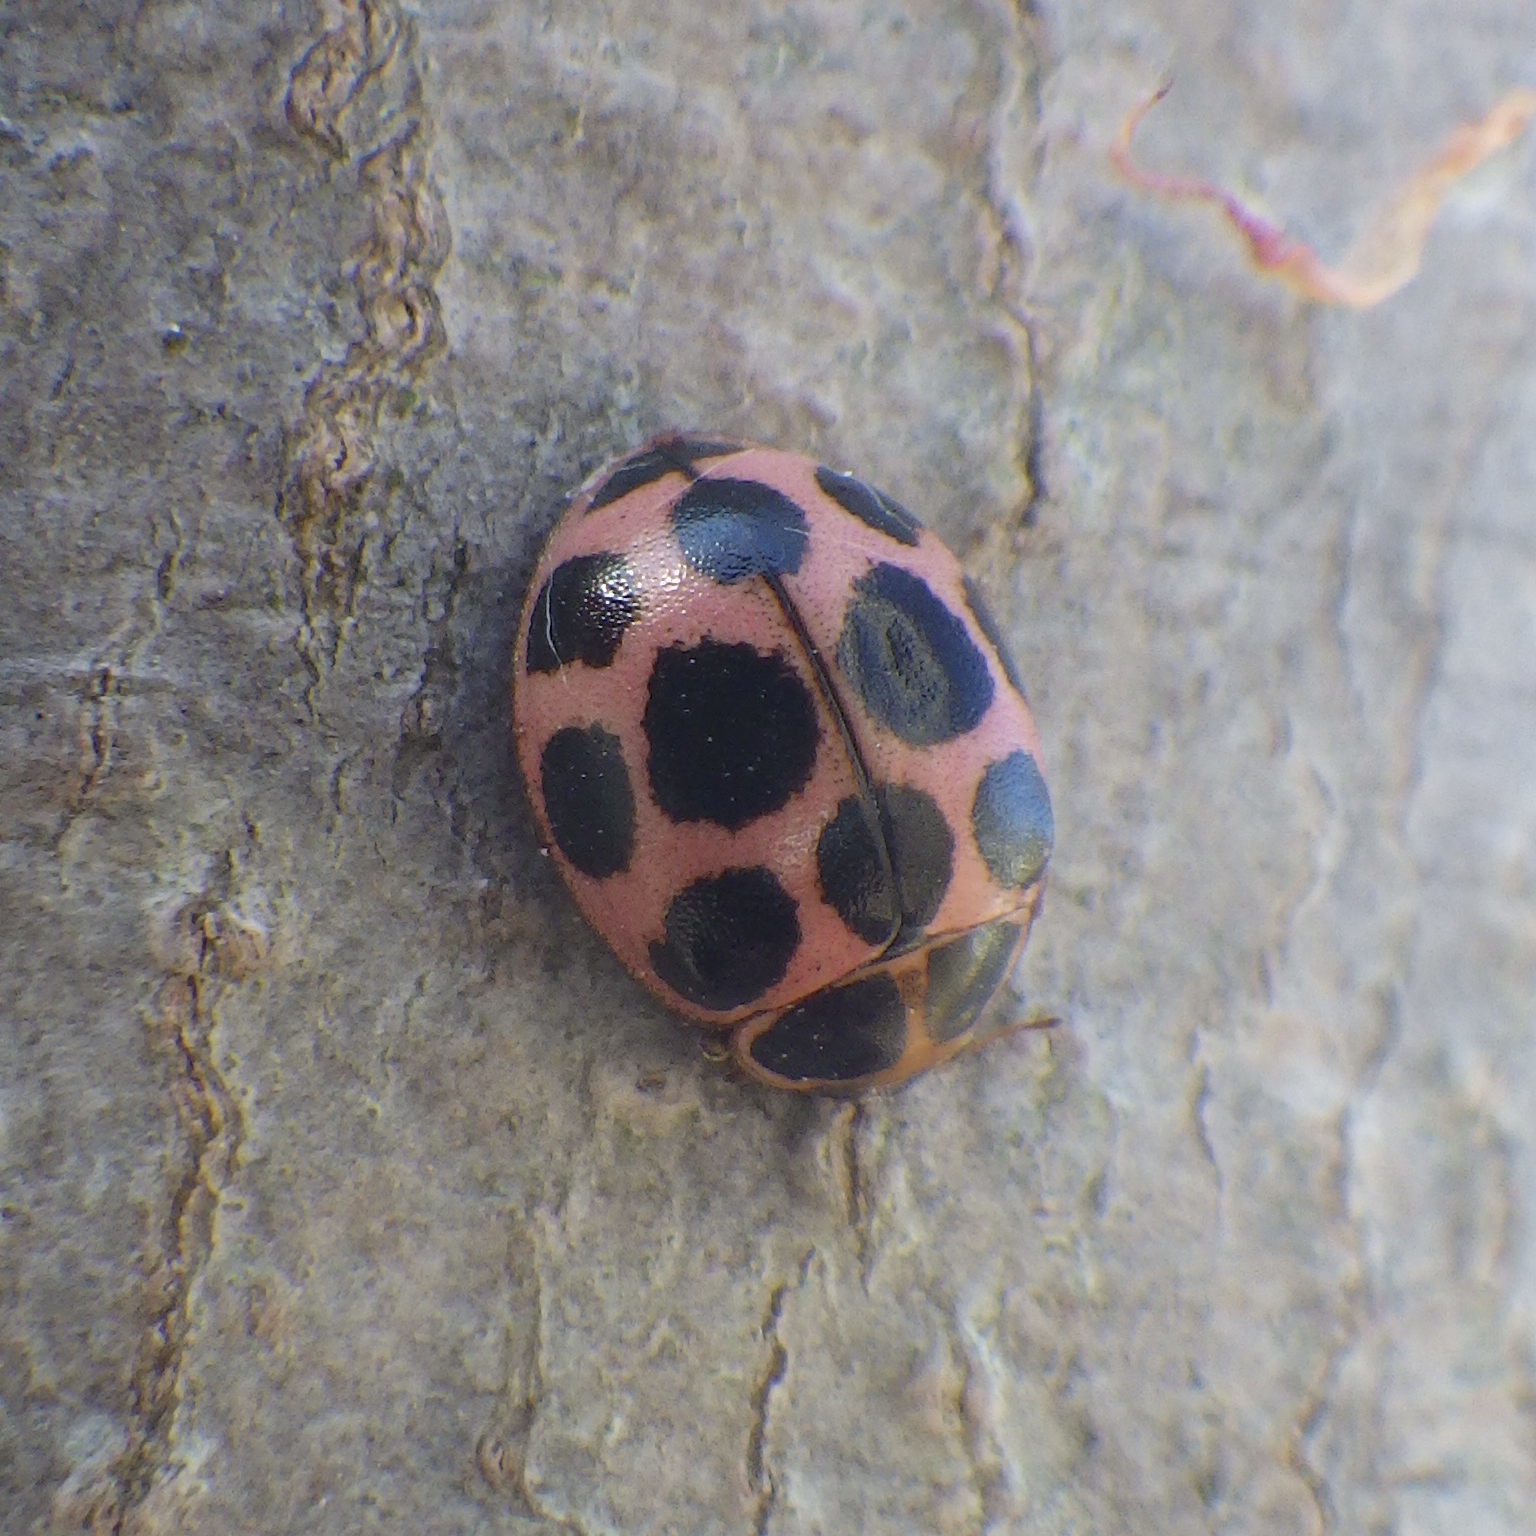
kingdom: Animalia
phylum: Arthropoda
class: Insecta
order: Coleoptera
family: Coccinellidae
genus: Calvia
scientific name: Calvia quatuordecimguttata
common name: Cream-spot ladybird
